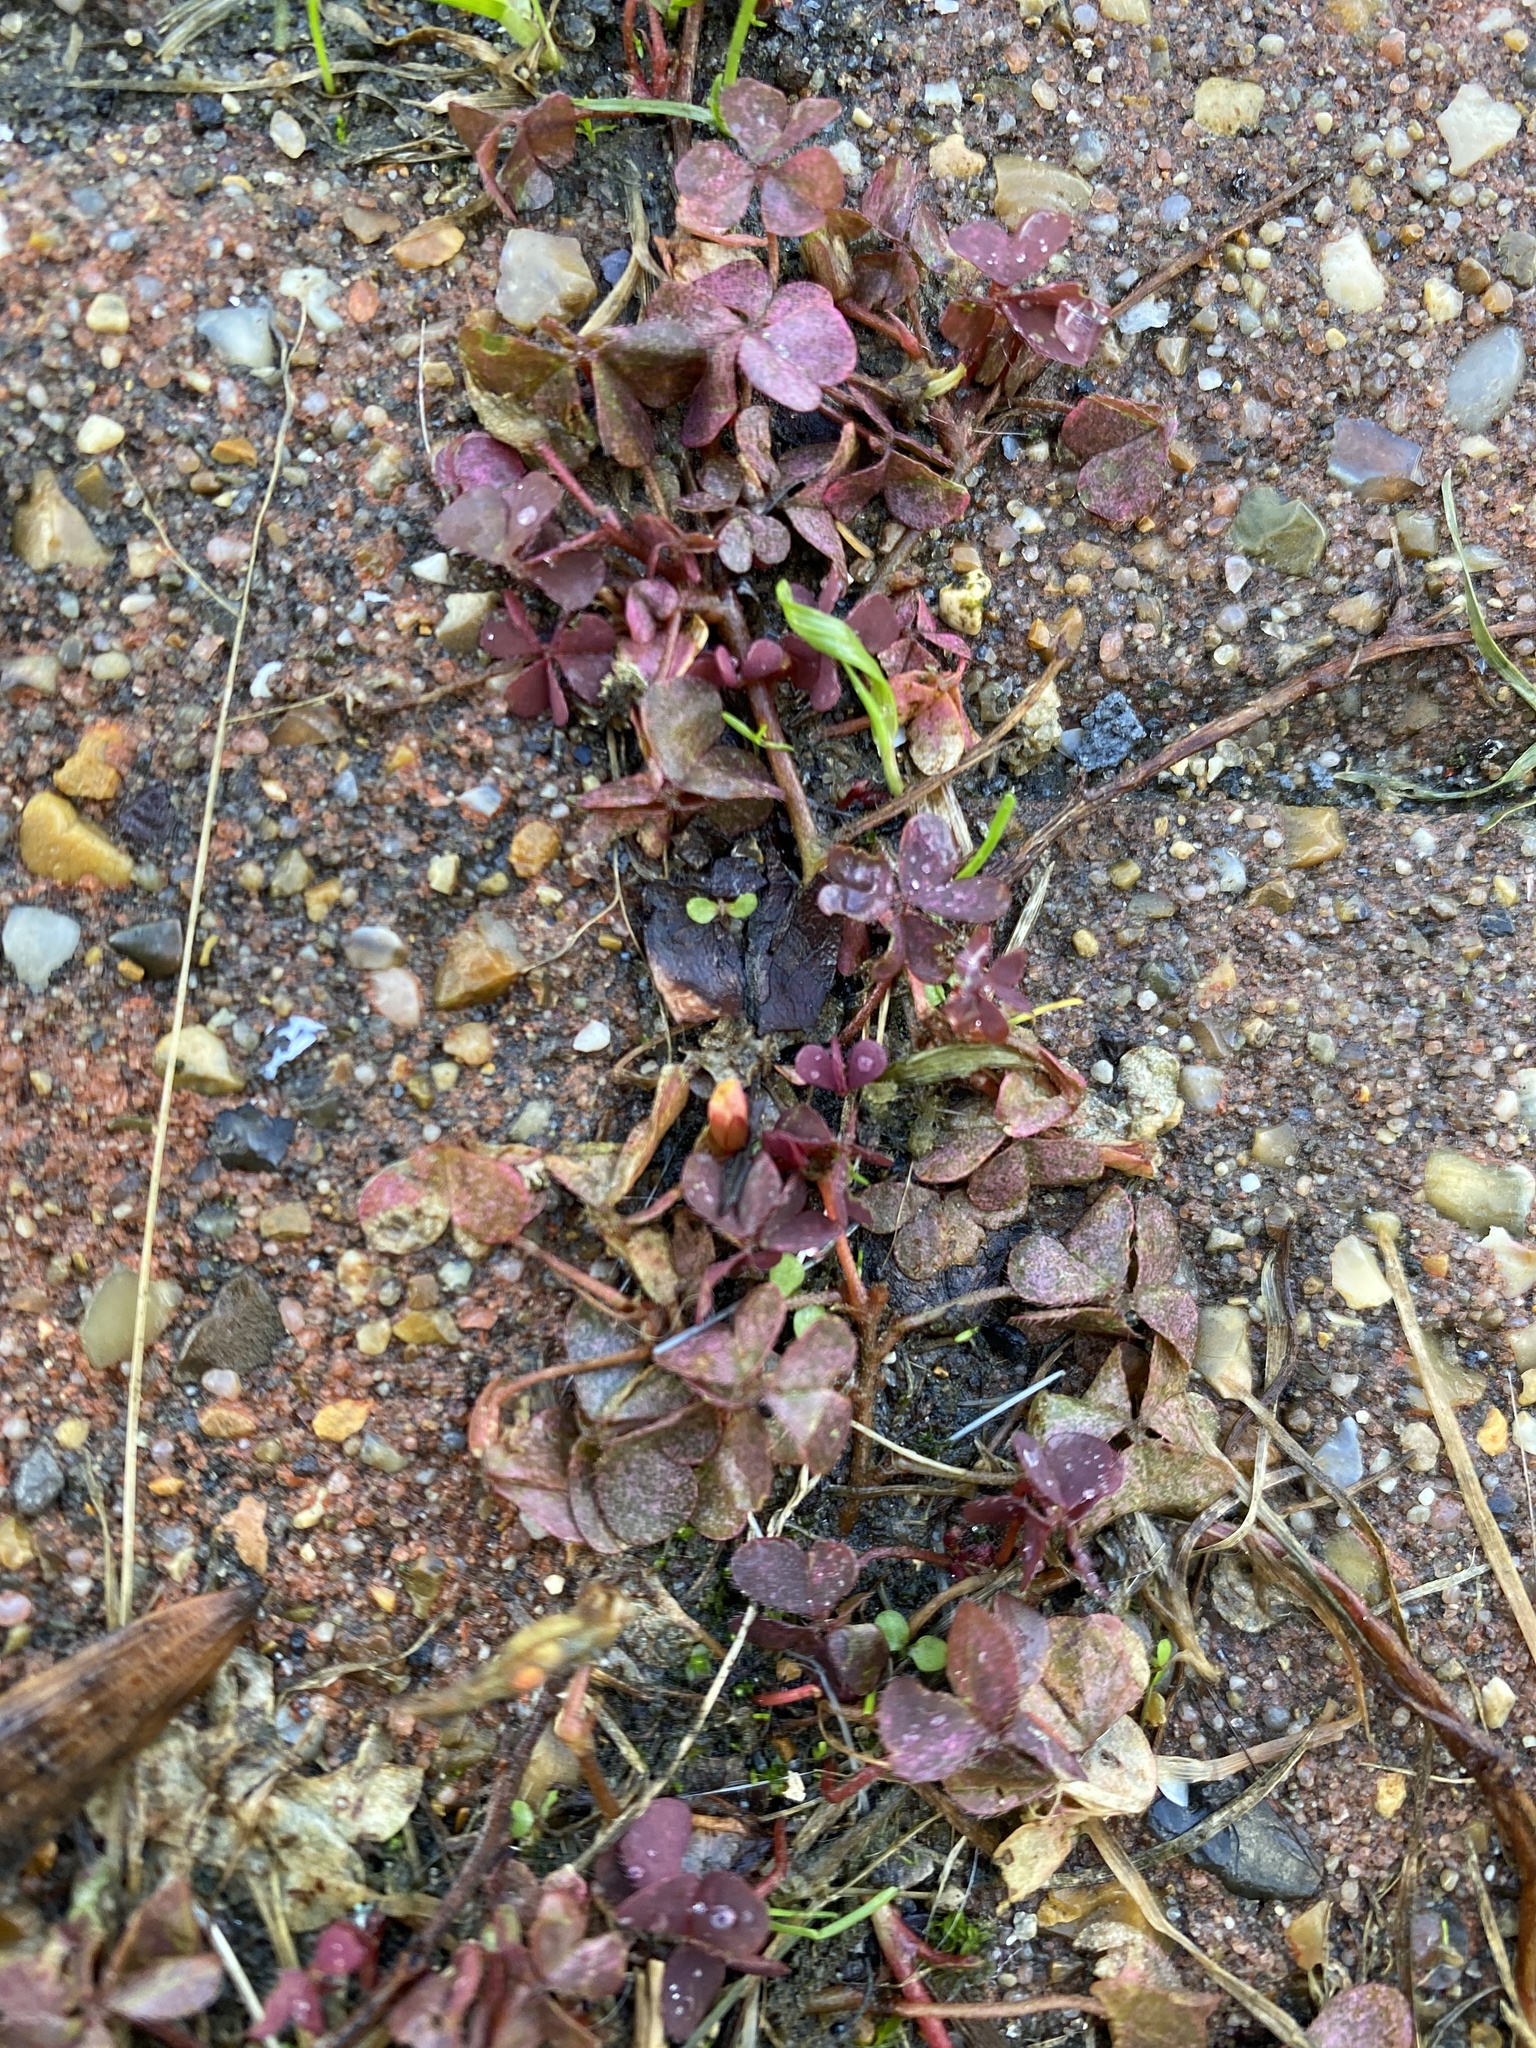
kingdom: Plantae
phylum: Tracheophyta
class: Magnoliopsida
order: Oxalidales
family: Oxalidaceae
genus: Oxalis
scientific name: Oxalis corniculata
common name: Procumbent yellow-sorrel
